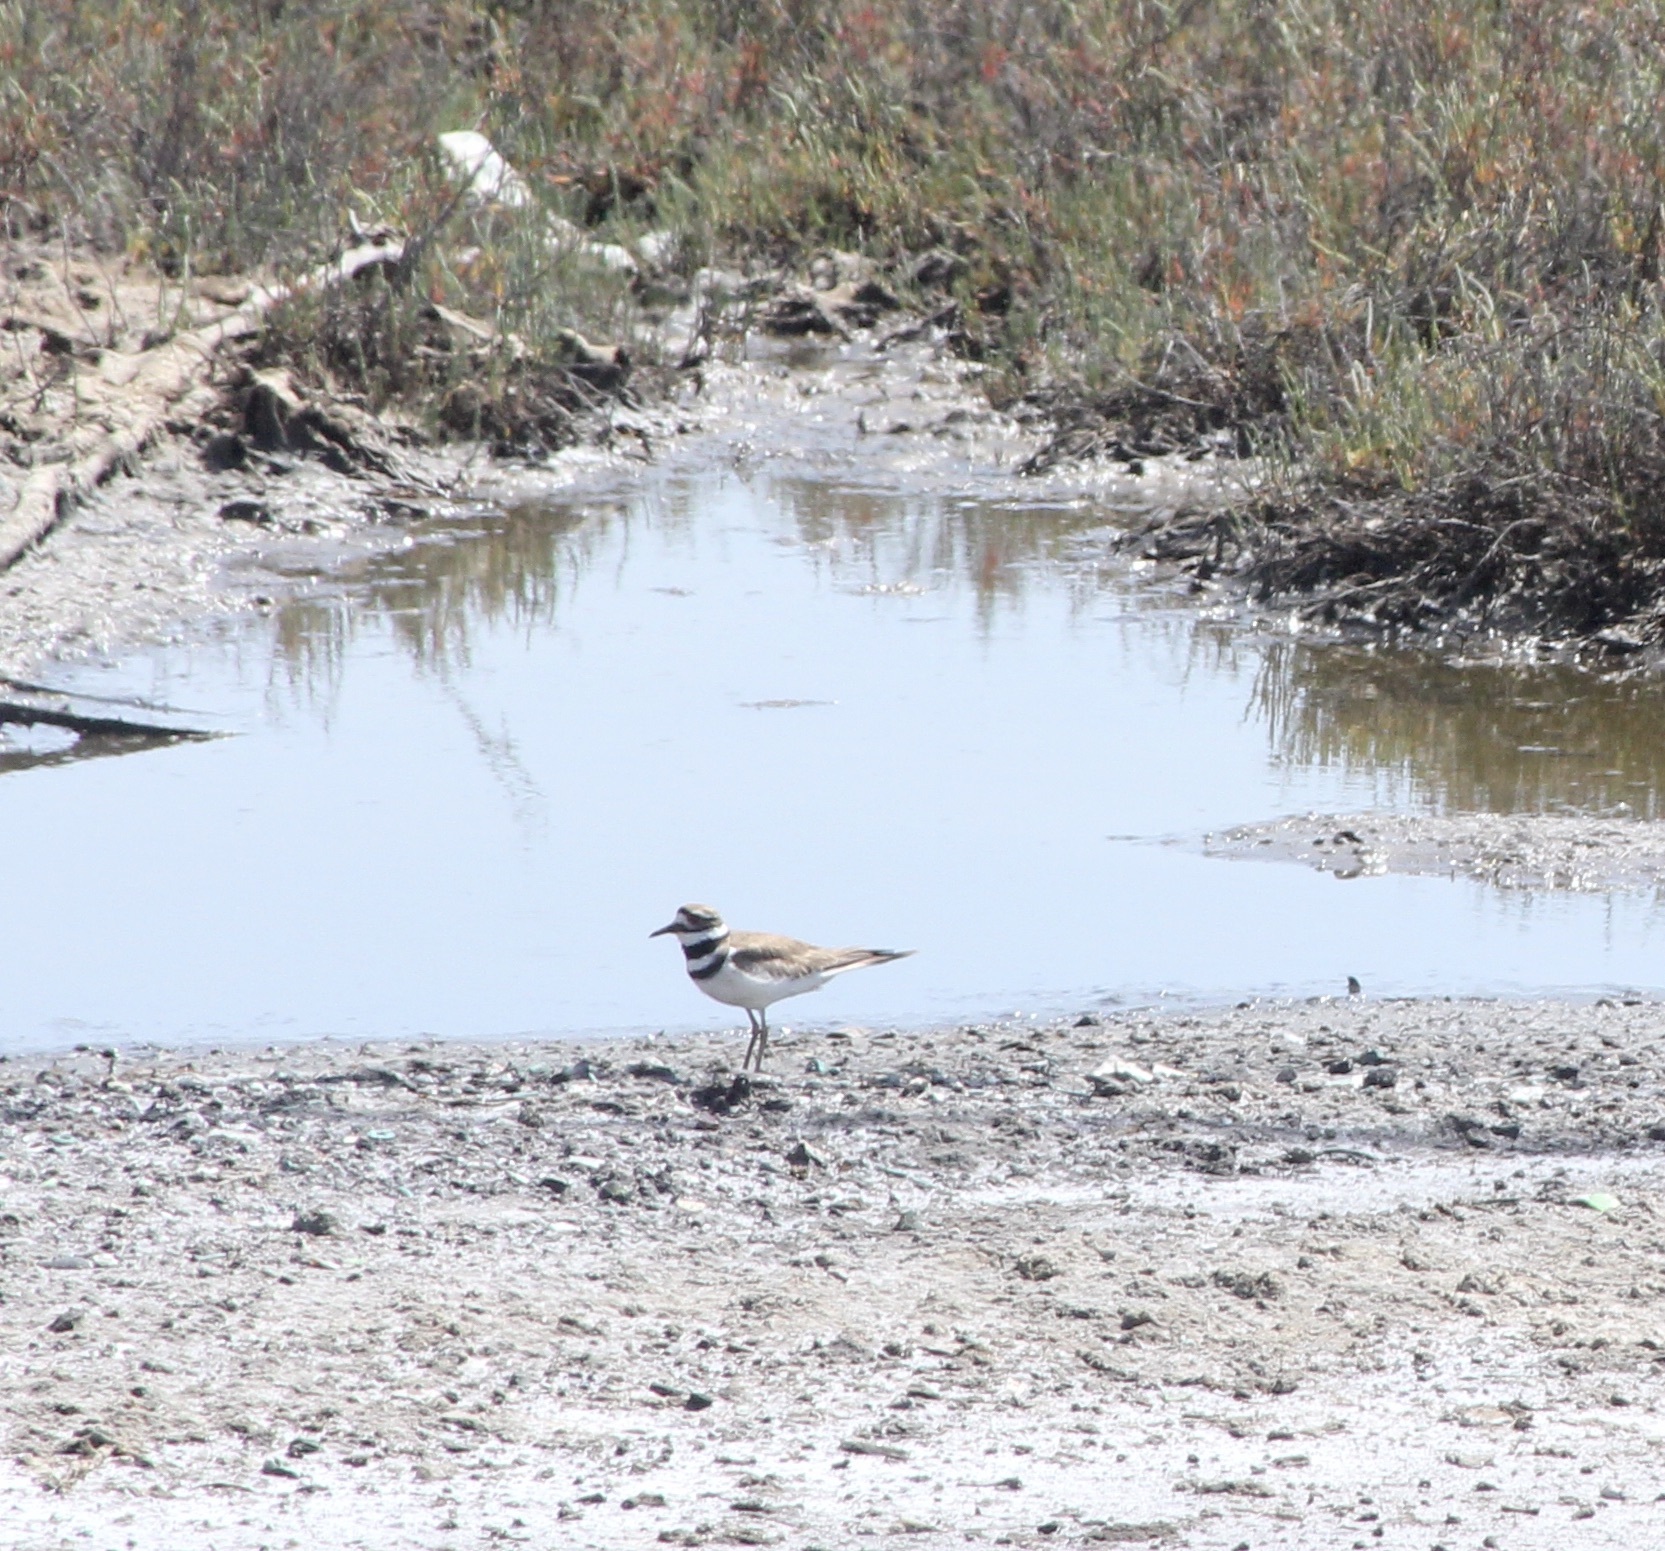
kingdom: Animalia
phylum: Chordata
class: Aves
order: Charadriiformes
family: Charadriidae
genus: Charadrius
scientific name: Charadrius vociferus
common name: Killdeer
